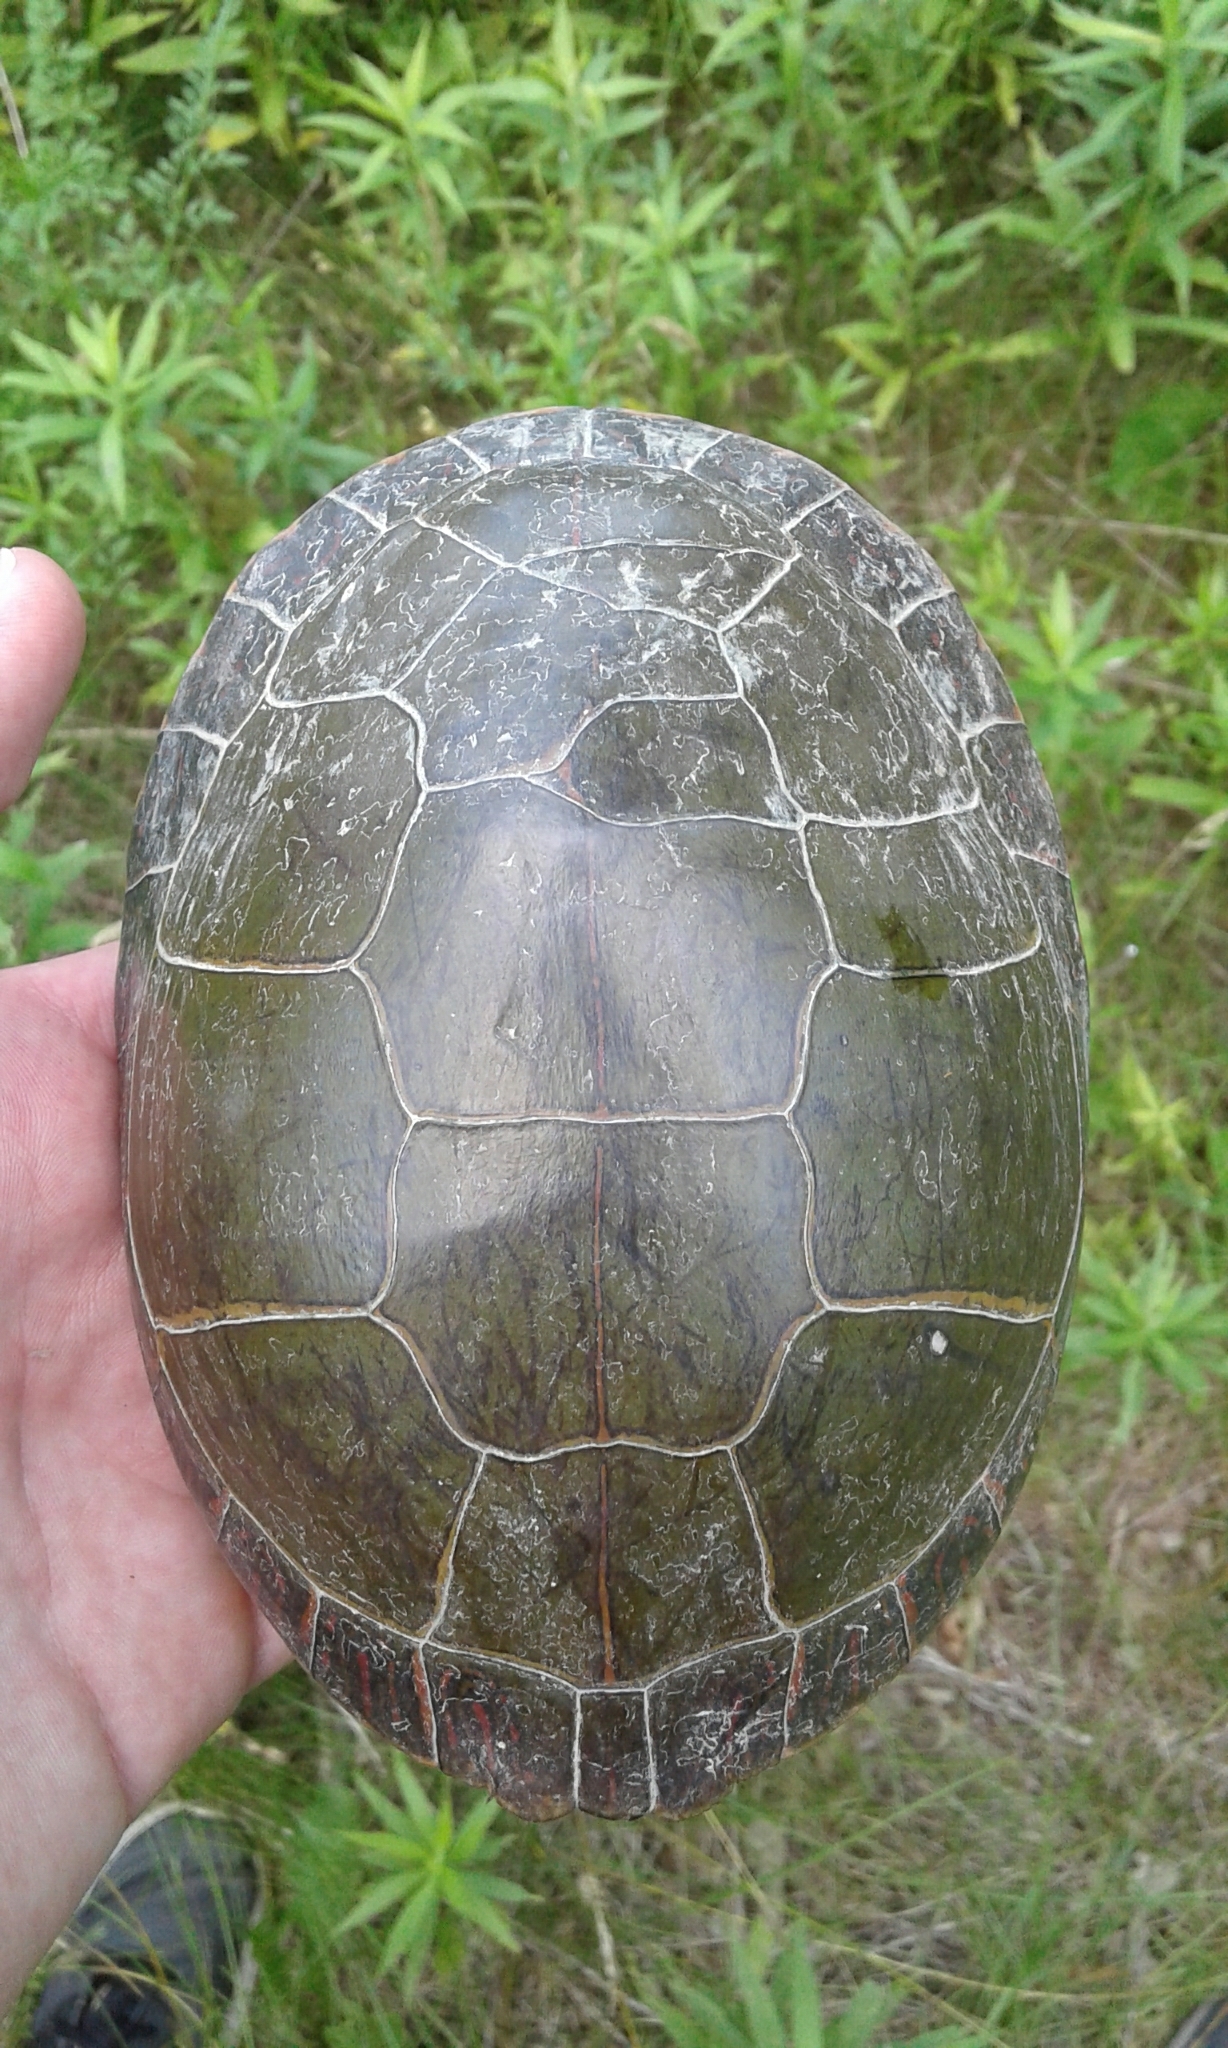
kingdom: Animalia
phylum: Chordata
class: Testudines
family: Emydidae
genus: Chrysemys
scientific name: Chrysemys picta
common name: Painted turtle
